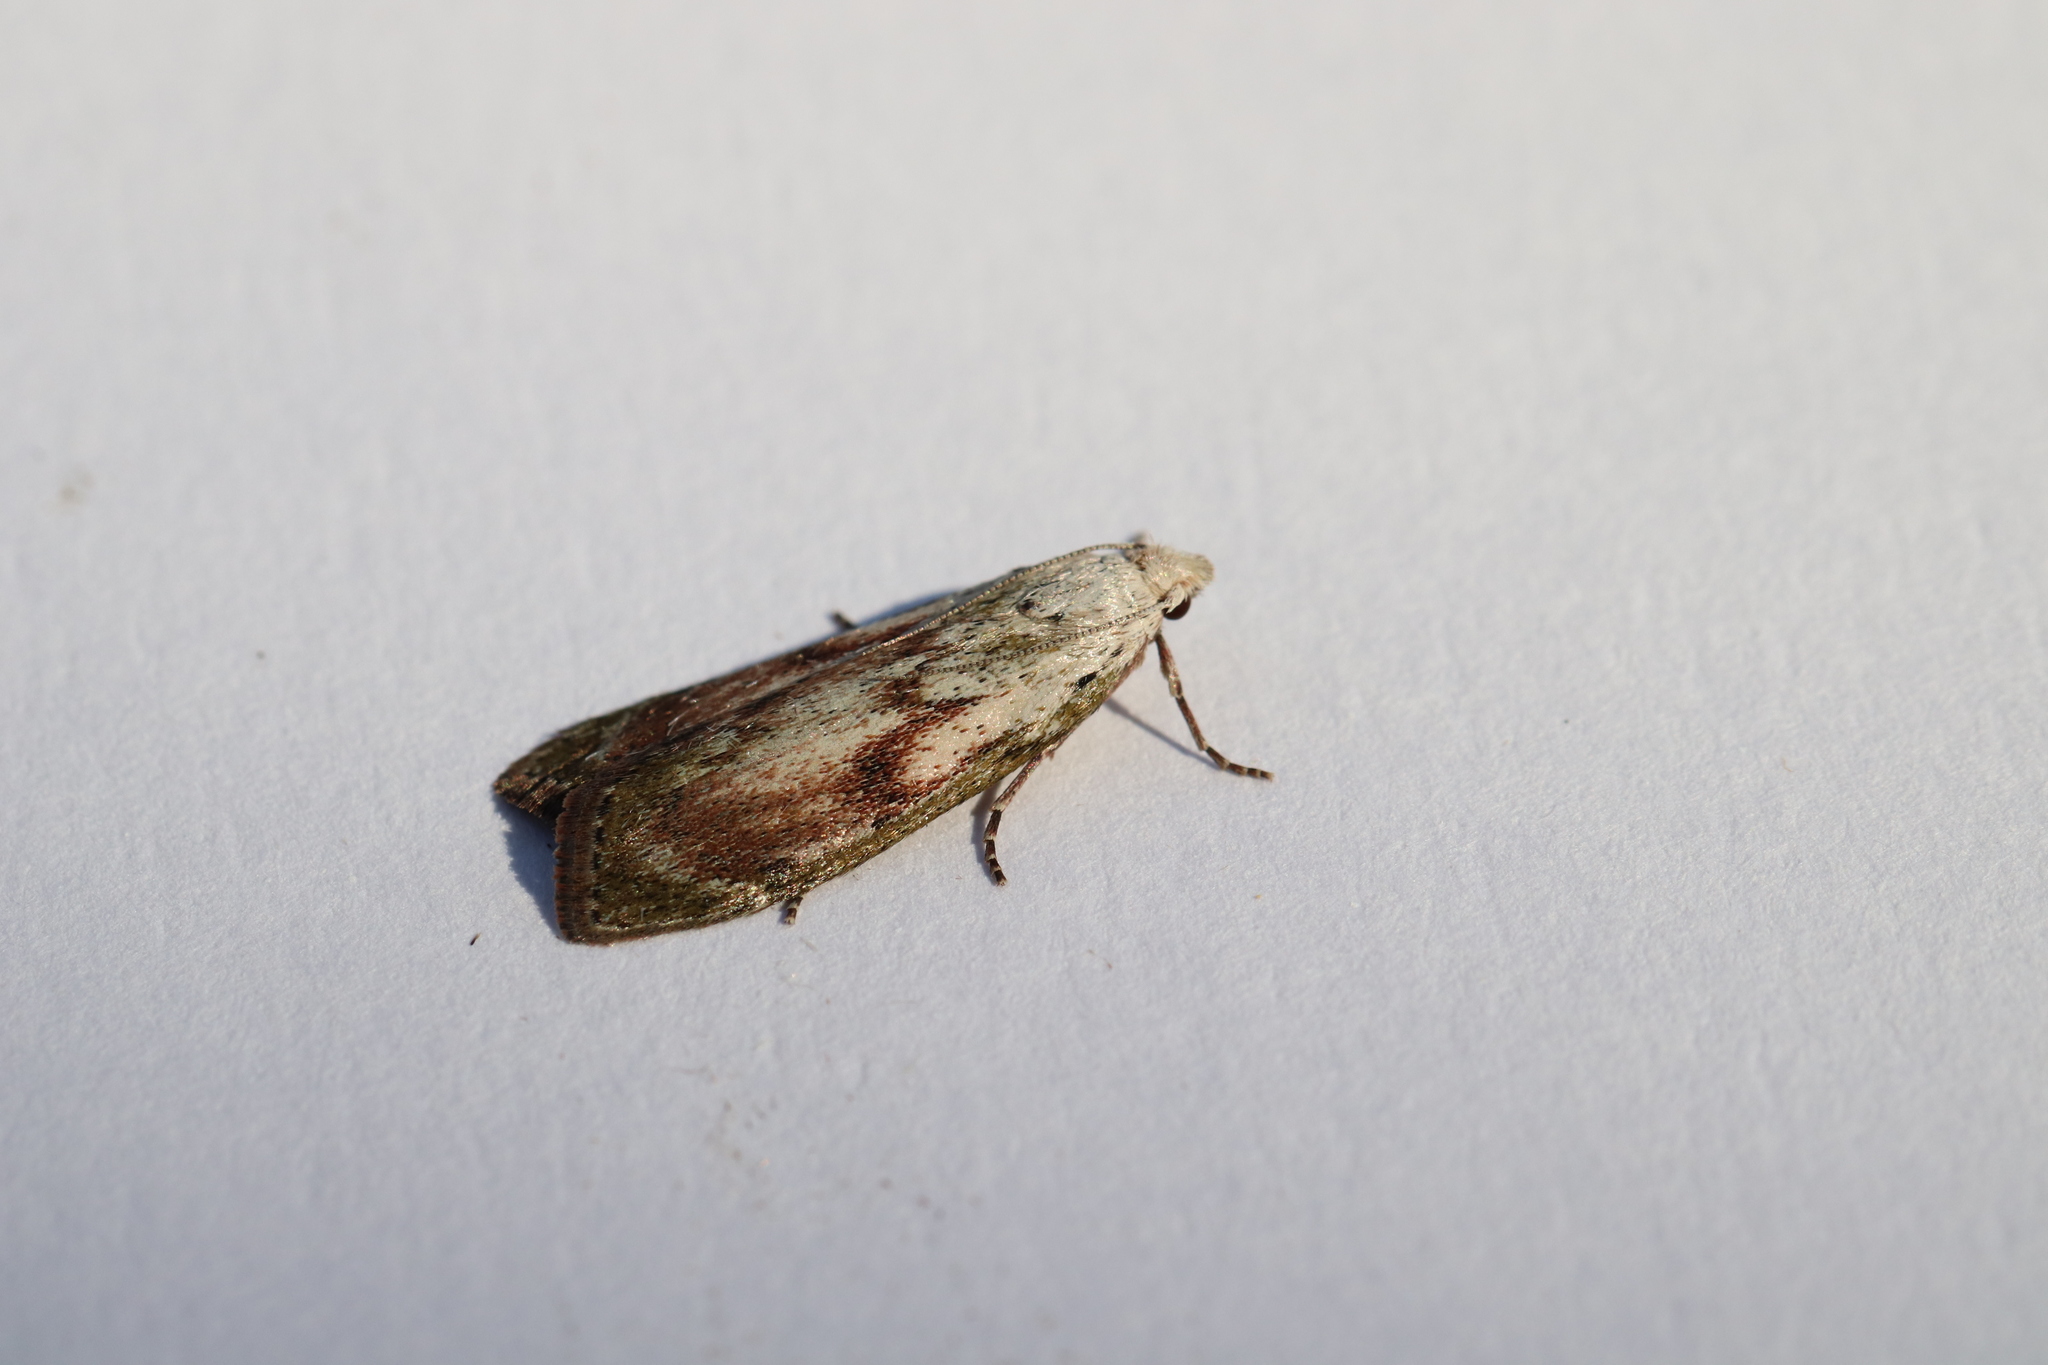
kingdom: Animalia
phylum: Arthropoda
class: Insecta
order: Lepidoptera
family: Pyralidae
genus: Aphomia
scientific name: Aphomia sociella
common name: Bee moth
